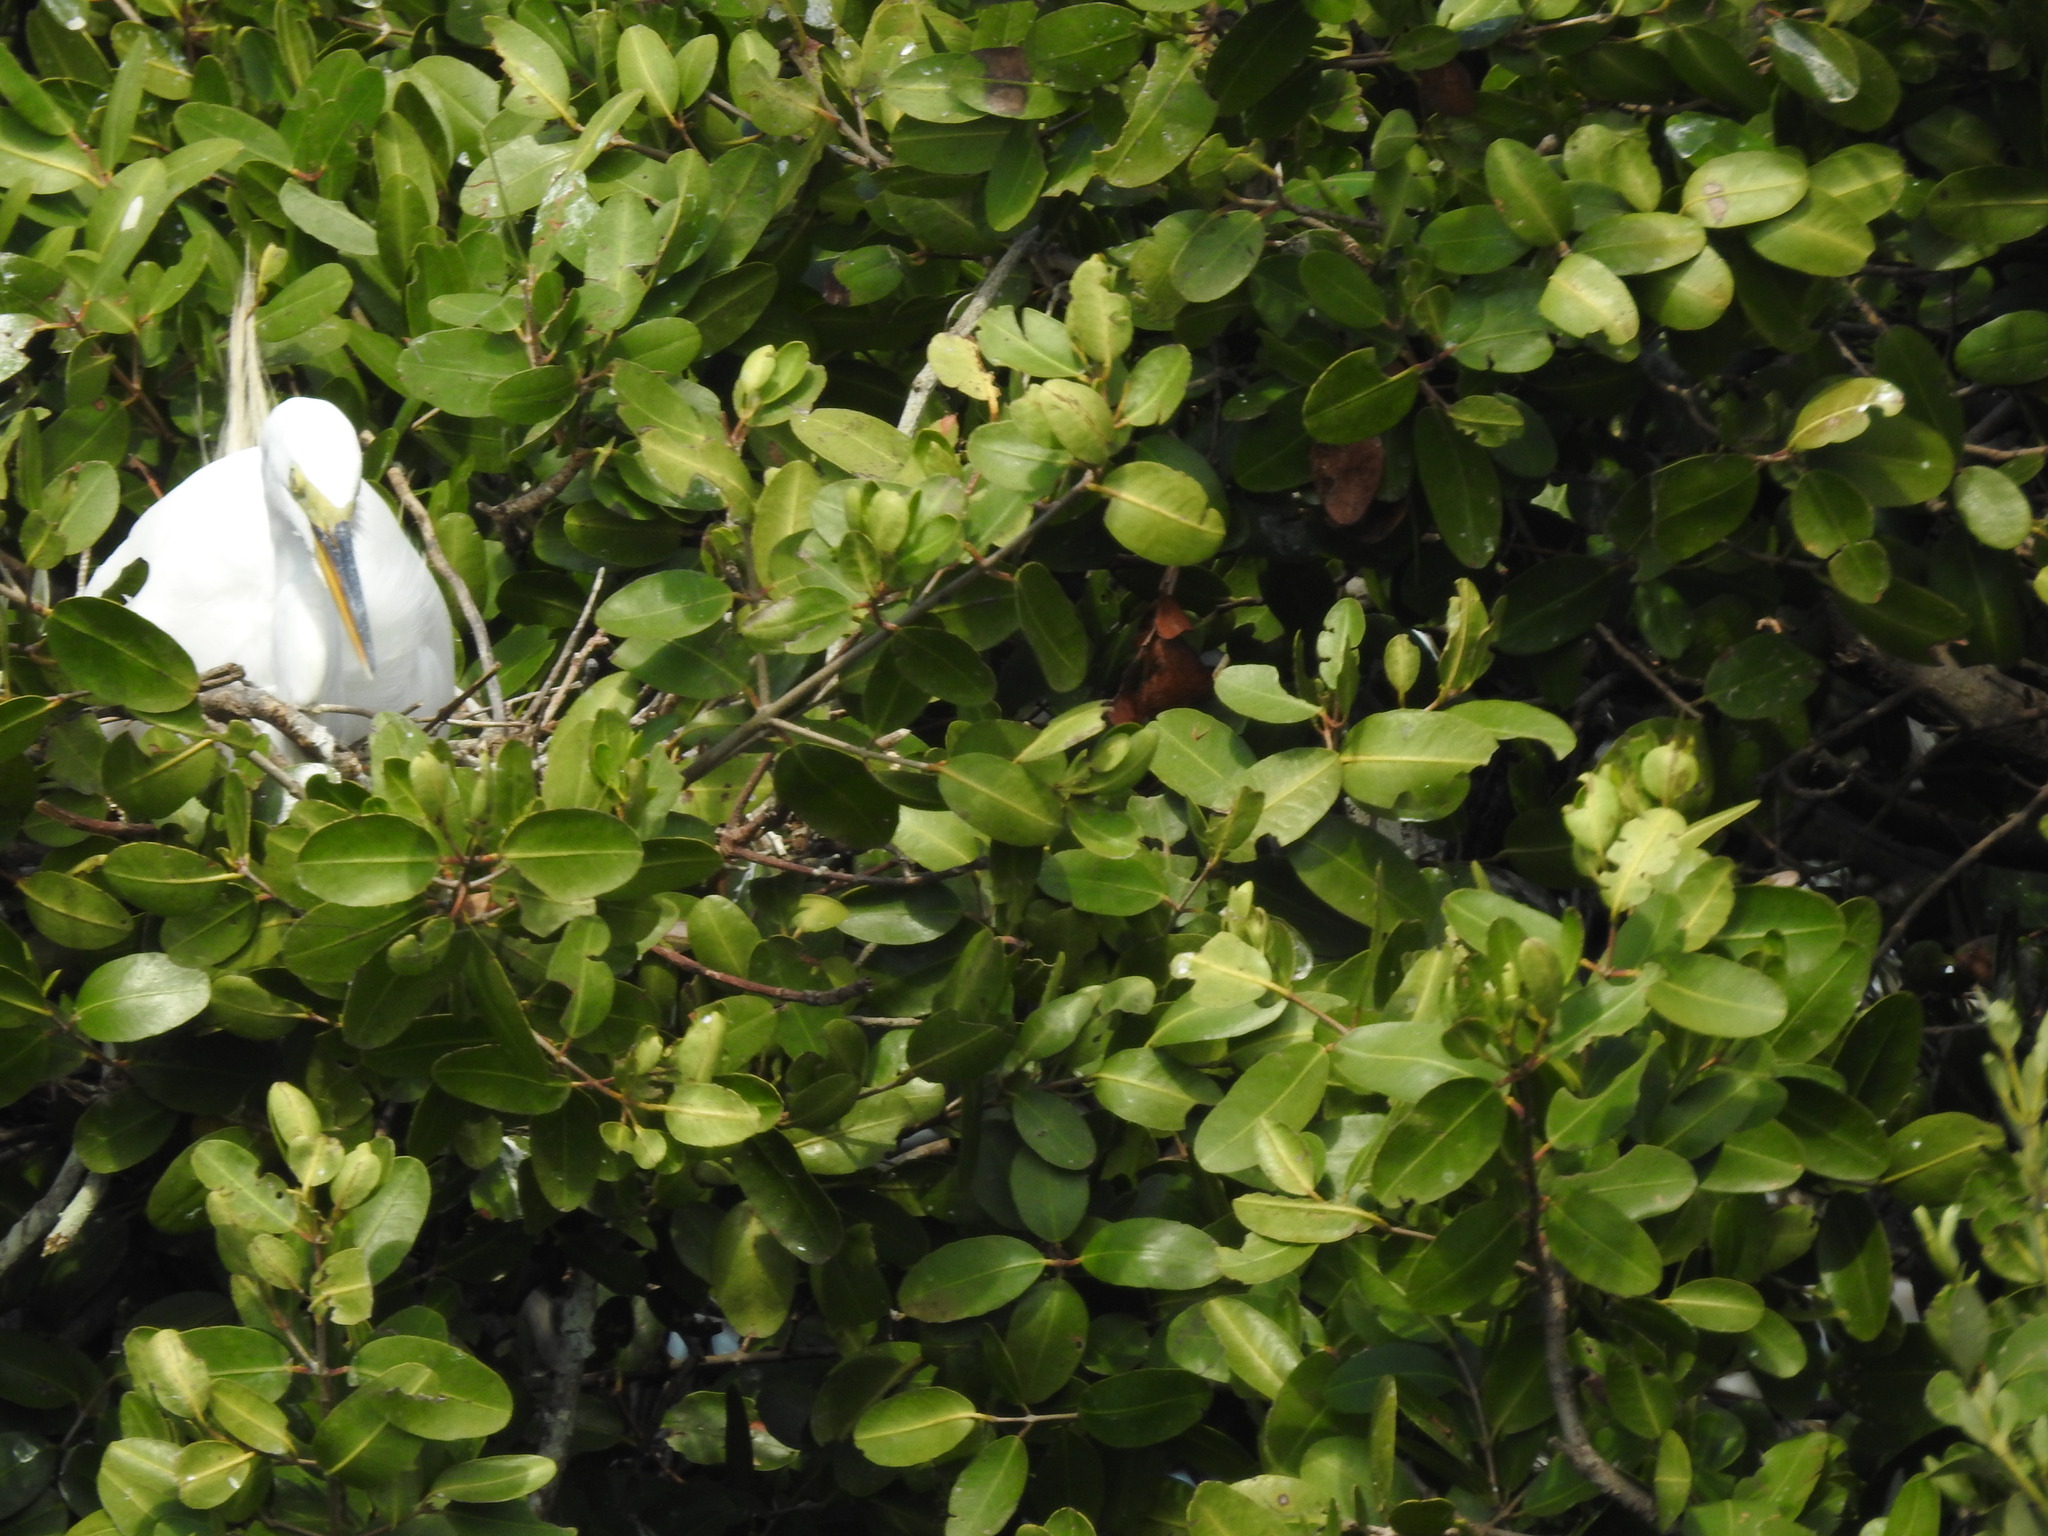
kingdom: Animalia
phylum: Chordata
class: Aves
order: Pelecaniformes
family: Ardeidae
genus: Ardea
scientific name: Ardea alba
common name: Great egret
